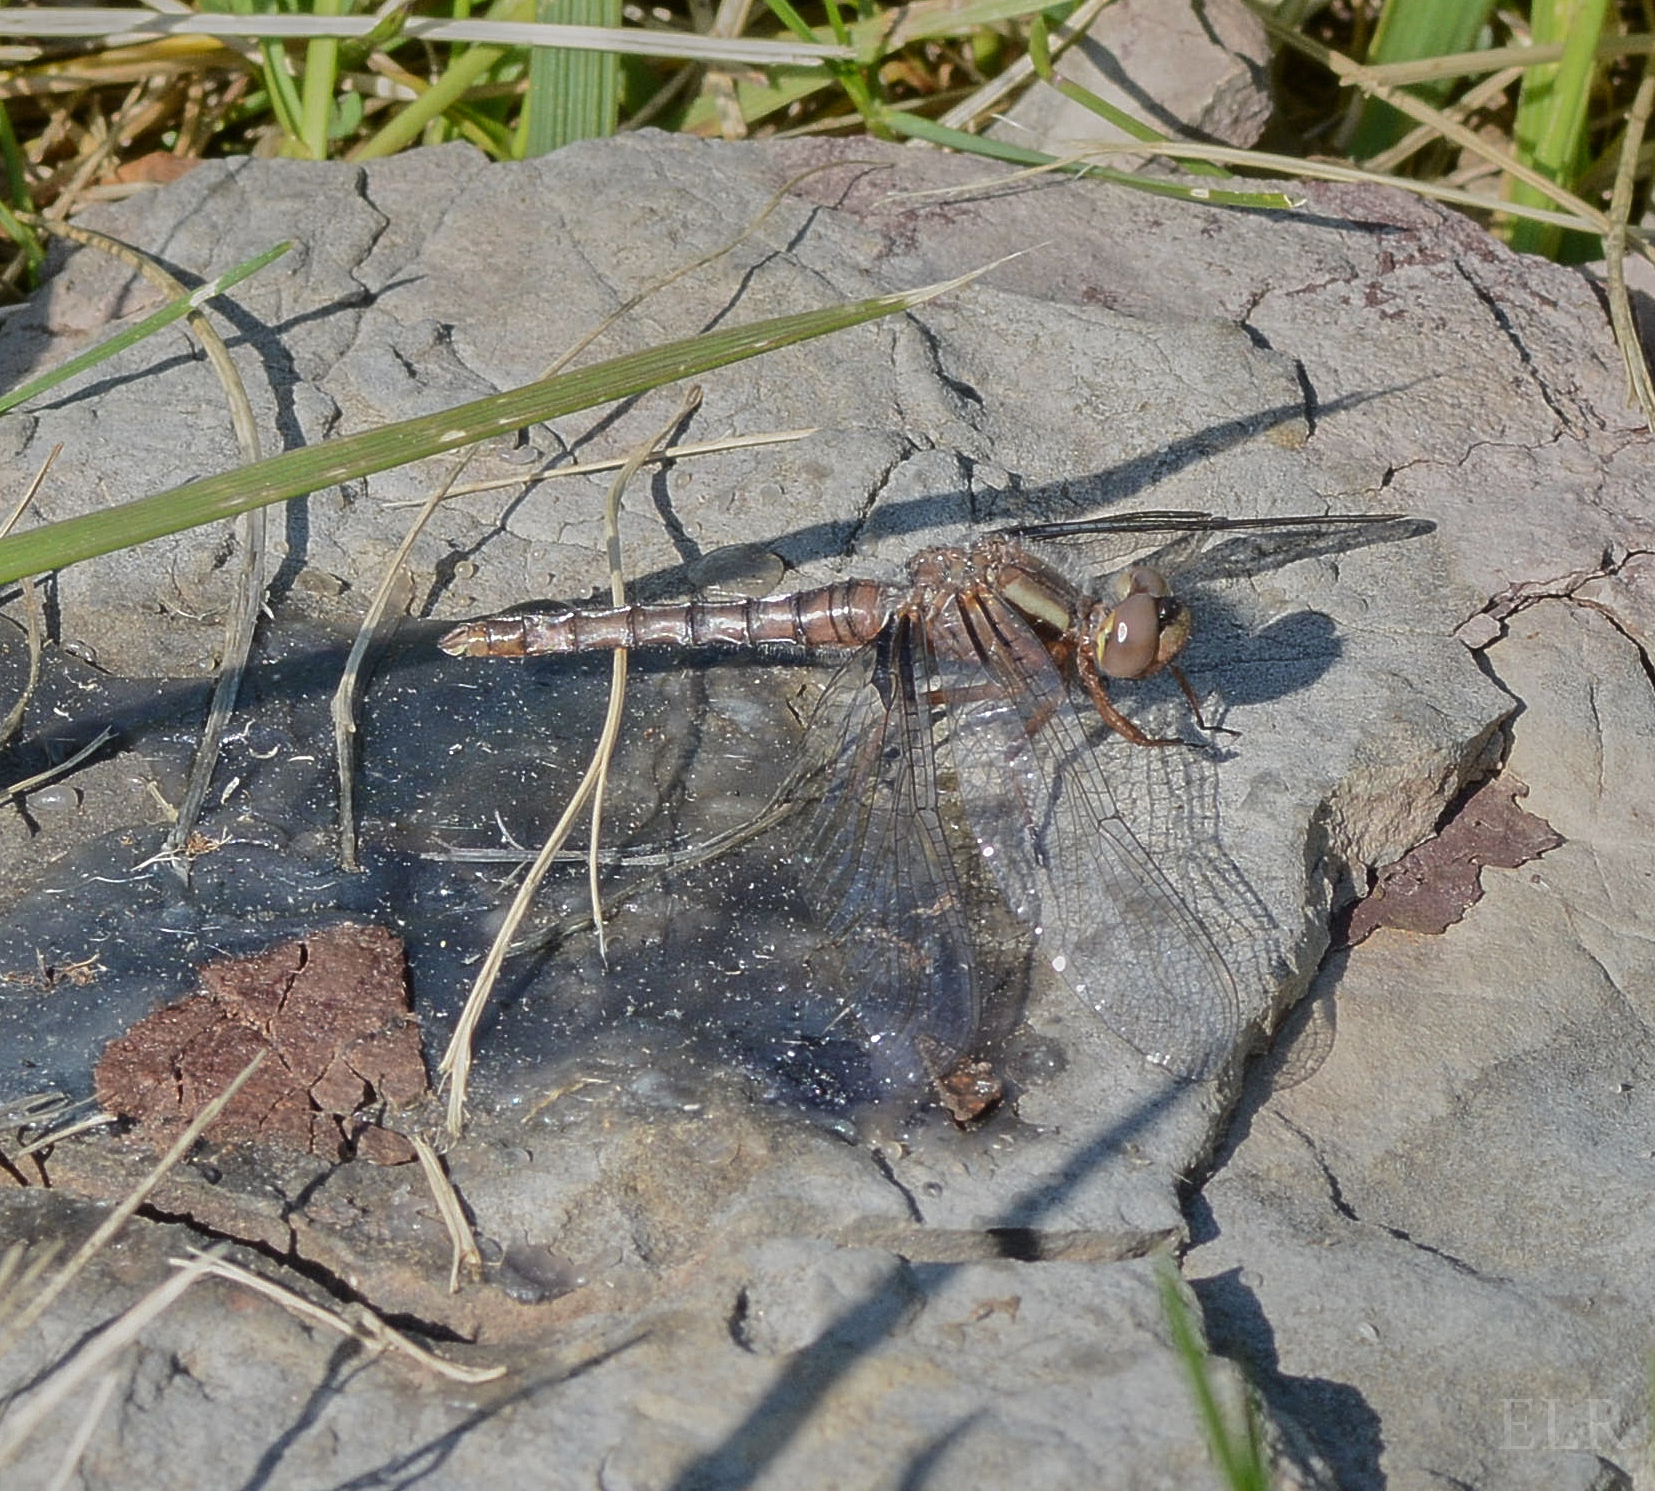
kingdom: Animalia
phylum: Arthropoda
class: Insecta
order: Odonata
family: Libellulidae
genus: Ladona
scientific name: Ladona deplanata
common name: Blue corporal
